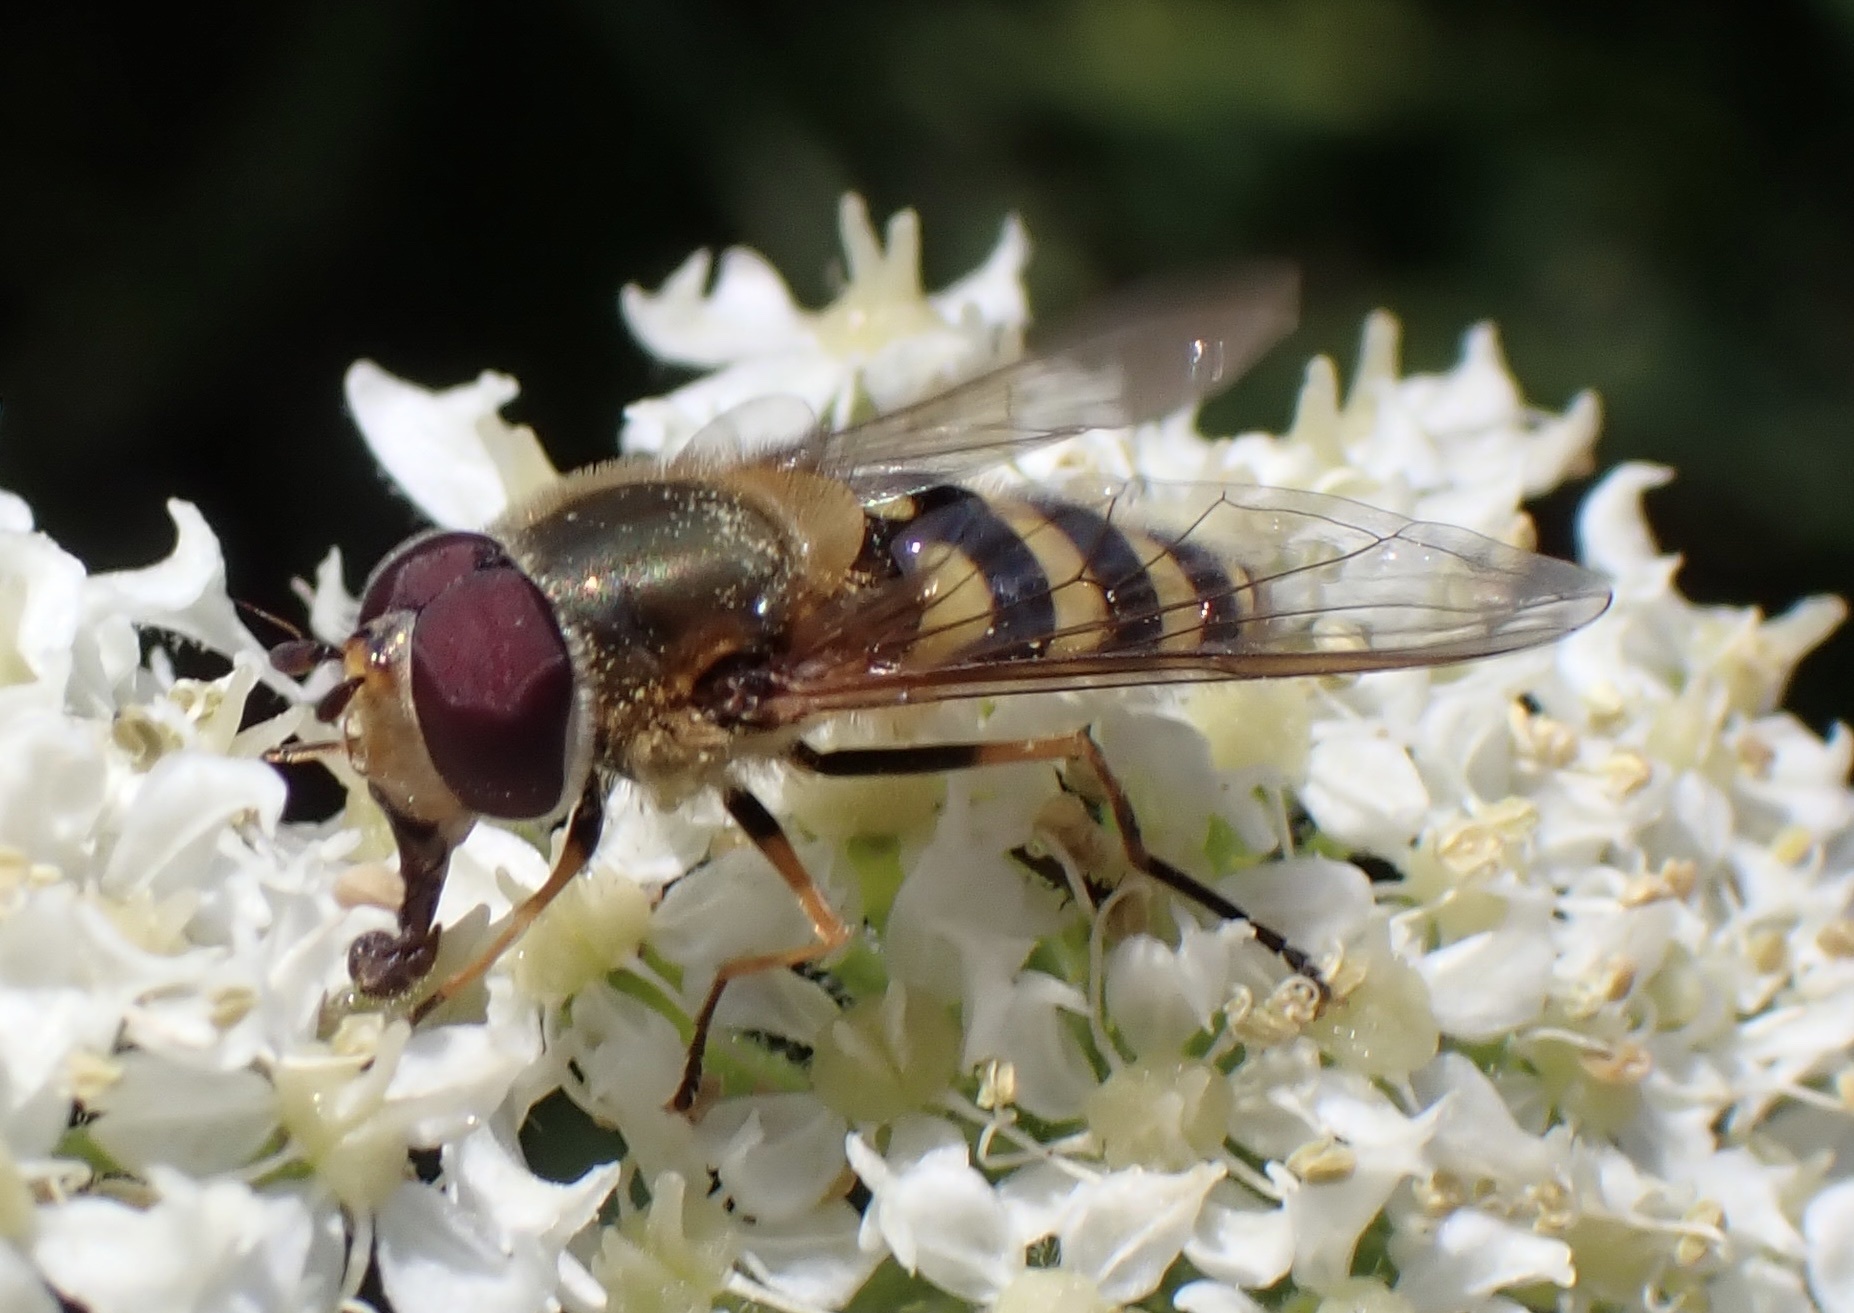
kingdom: Animalia
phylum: Arthropoda
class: Insecta
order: Diptera
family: Syrphidae
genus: Syrphus
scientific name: Syrphus torvus
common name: Hairy-eyed flower fly
